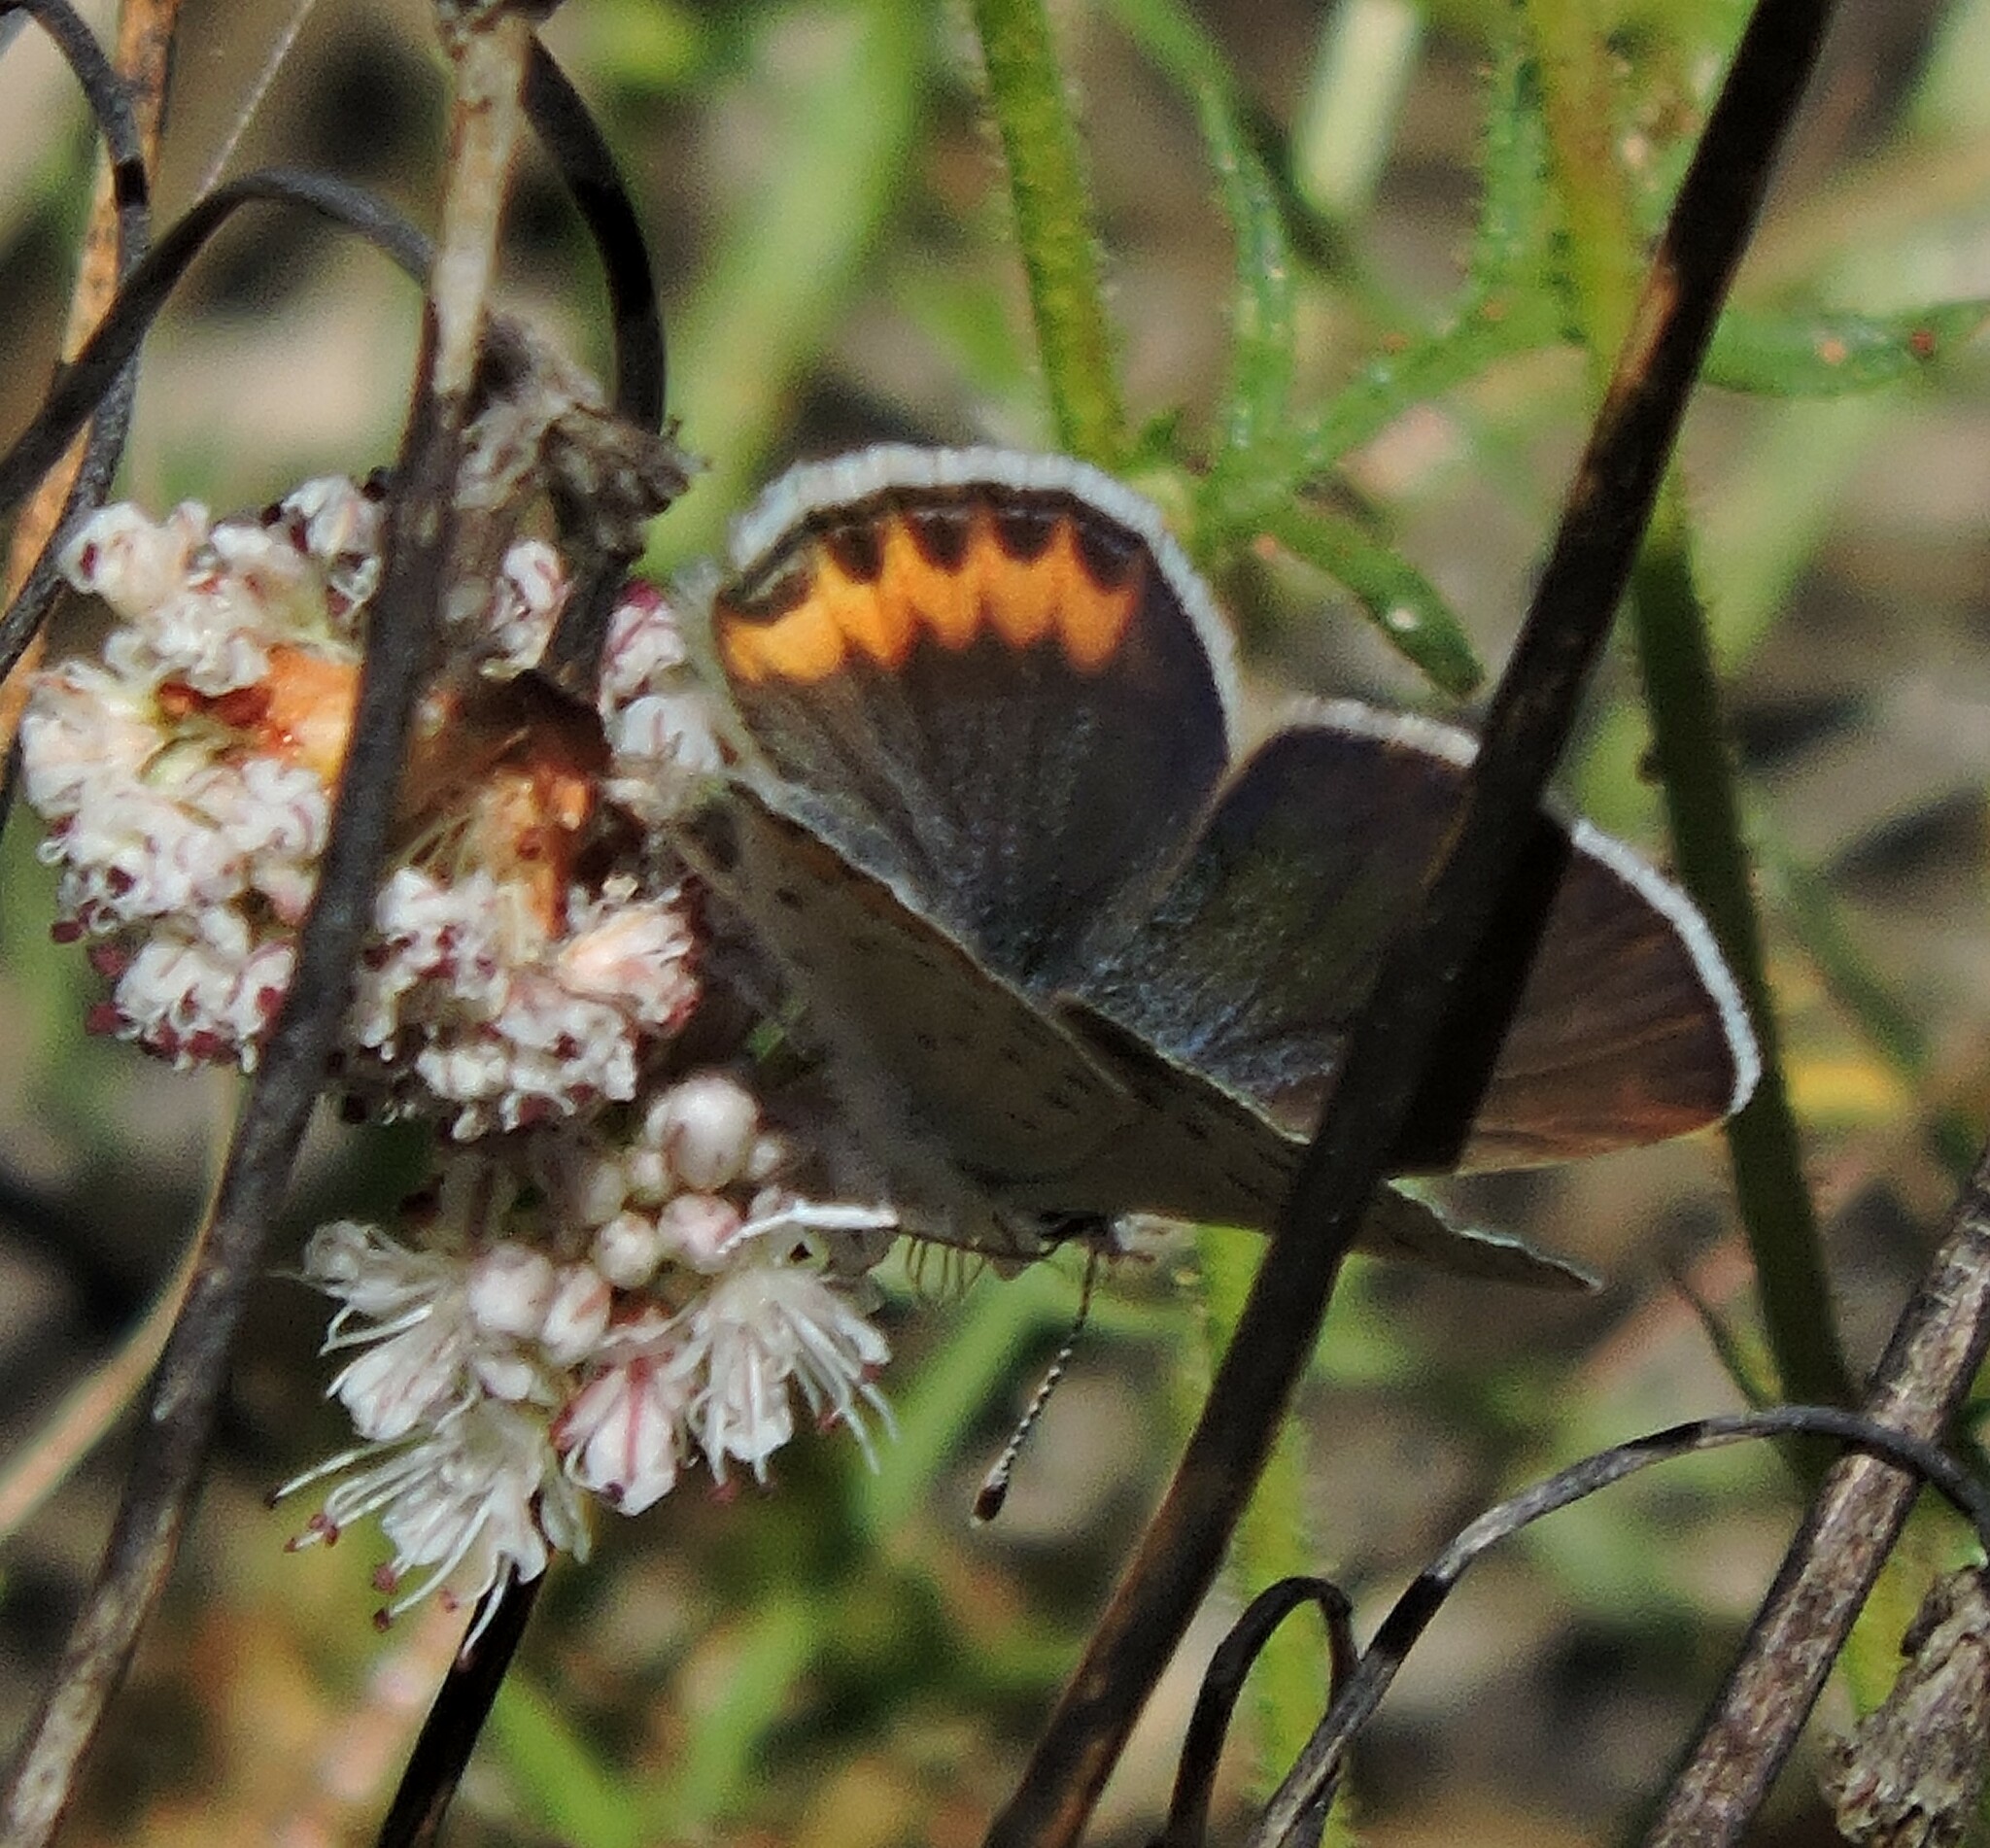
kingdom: Animalia
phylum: Arthropoda
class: Insecta
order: Lepidoptera
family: Lycaenidae
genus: Icaricia
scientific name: Icaricia acmon
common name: Acmon blue
